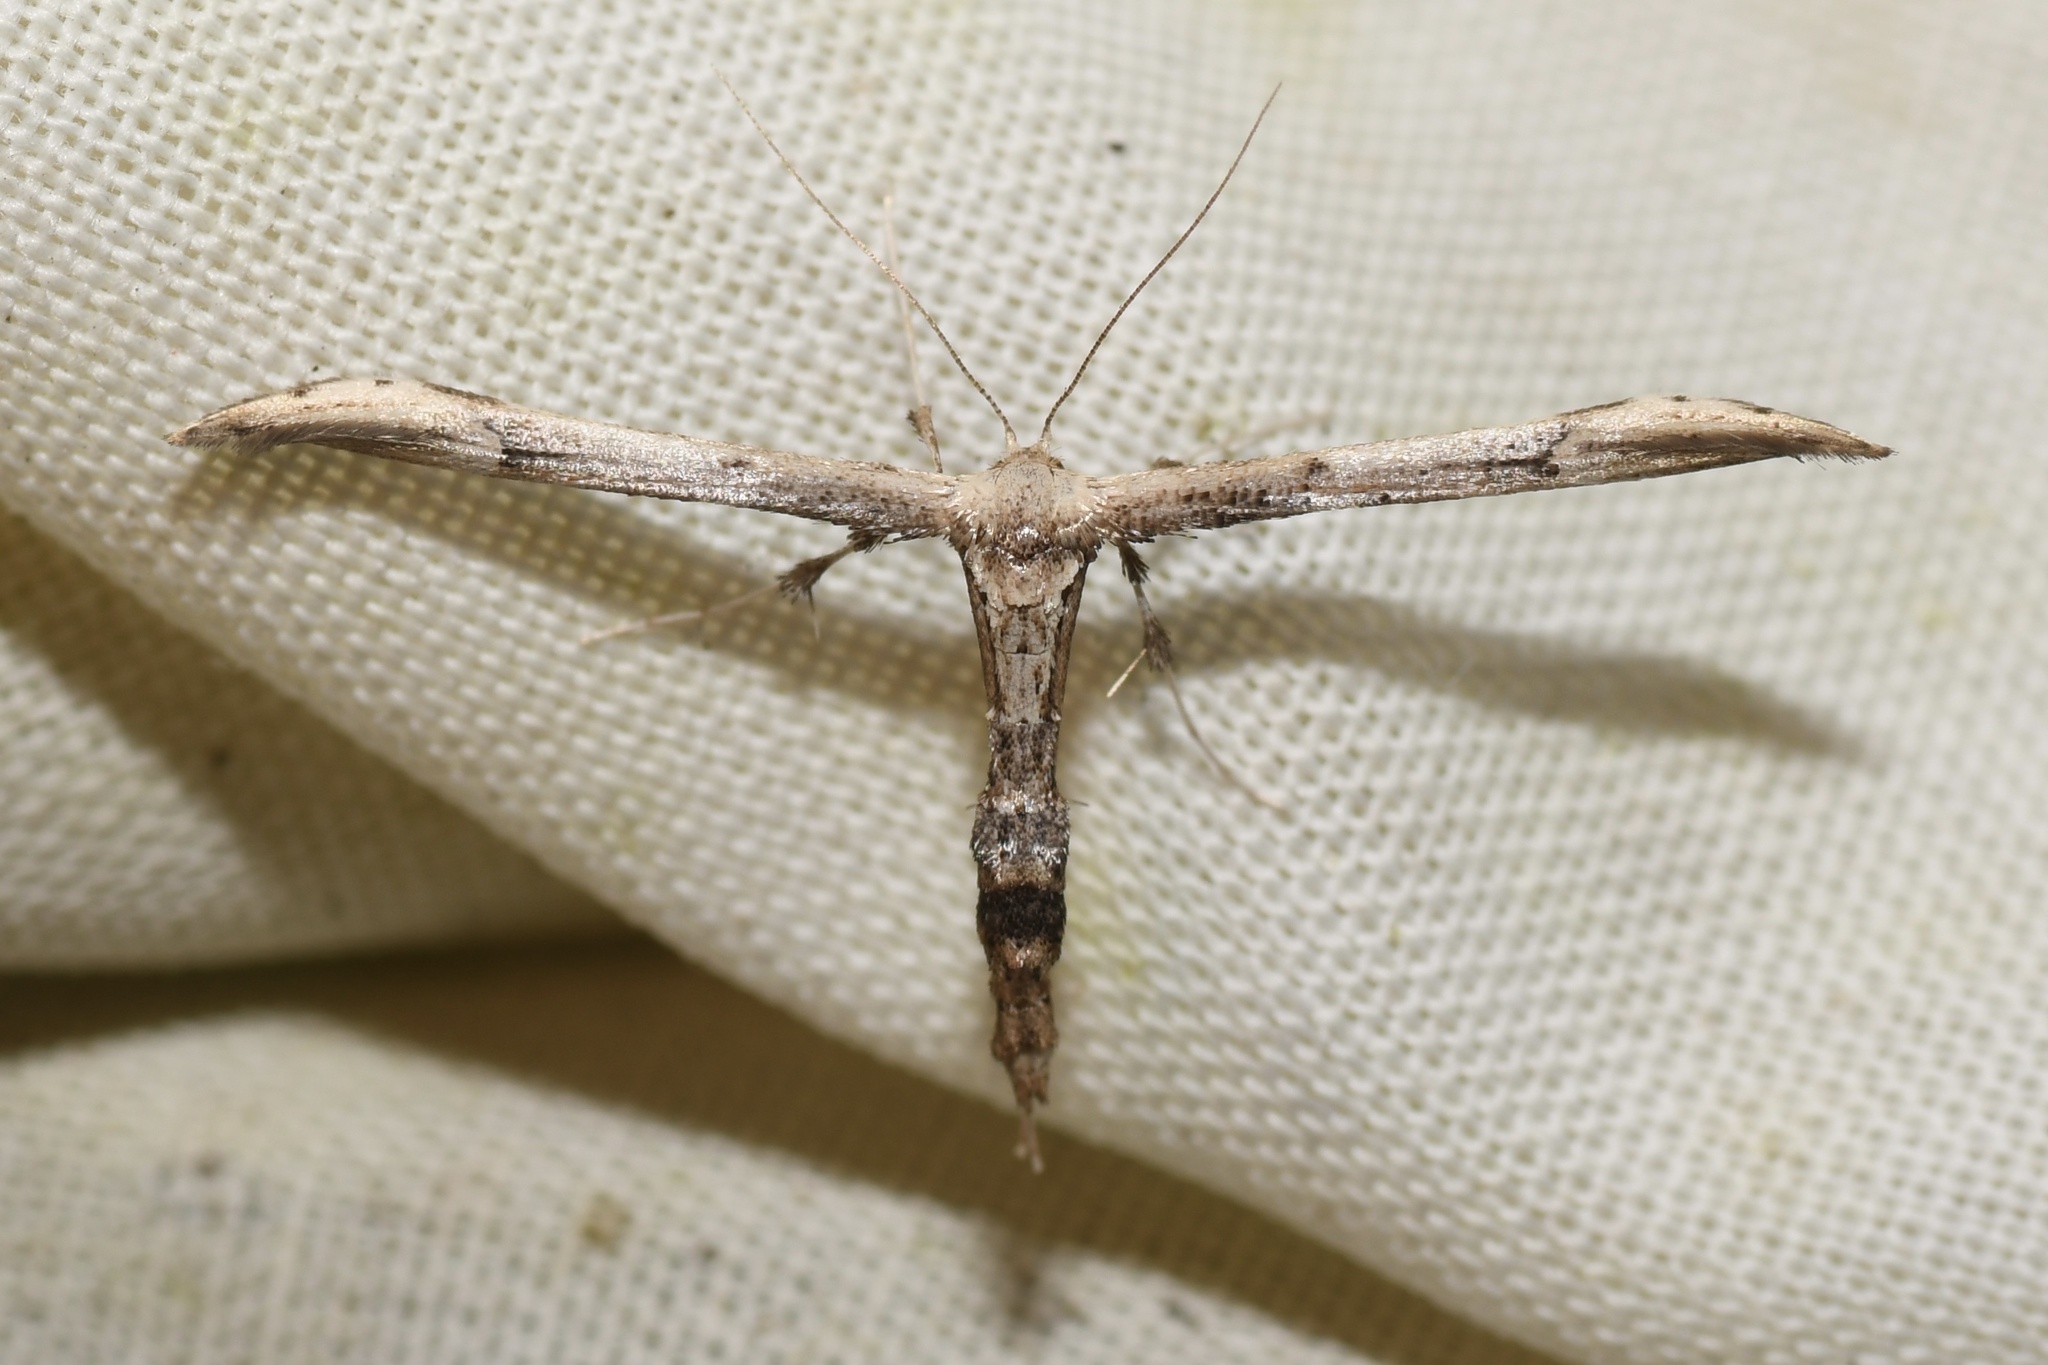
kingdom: Animalia
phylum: Arthropoda
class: Insecta
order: Lepidoptera
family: Pterophoridae
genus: Oidaematophorus
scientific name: Oidaematophorus eupatorii
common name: Eupatorium plume moth
